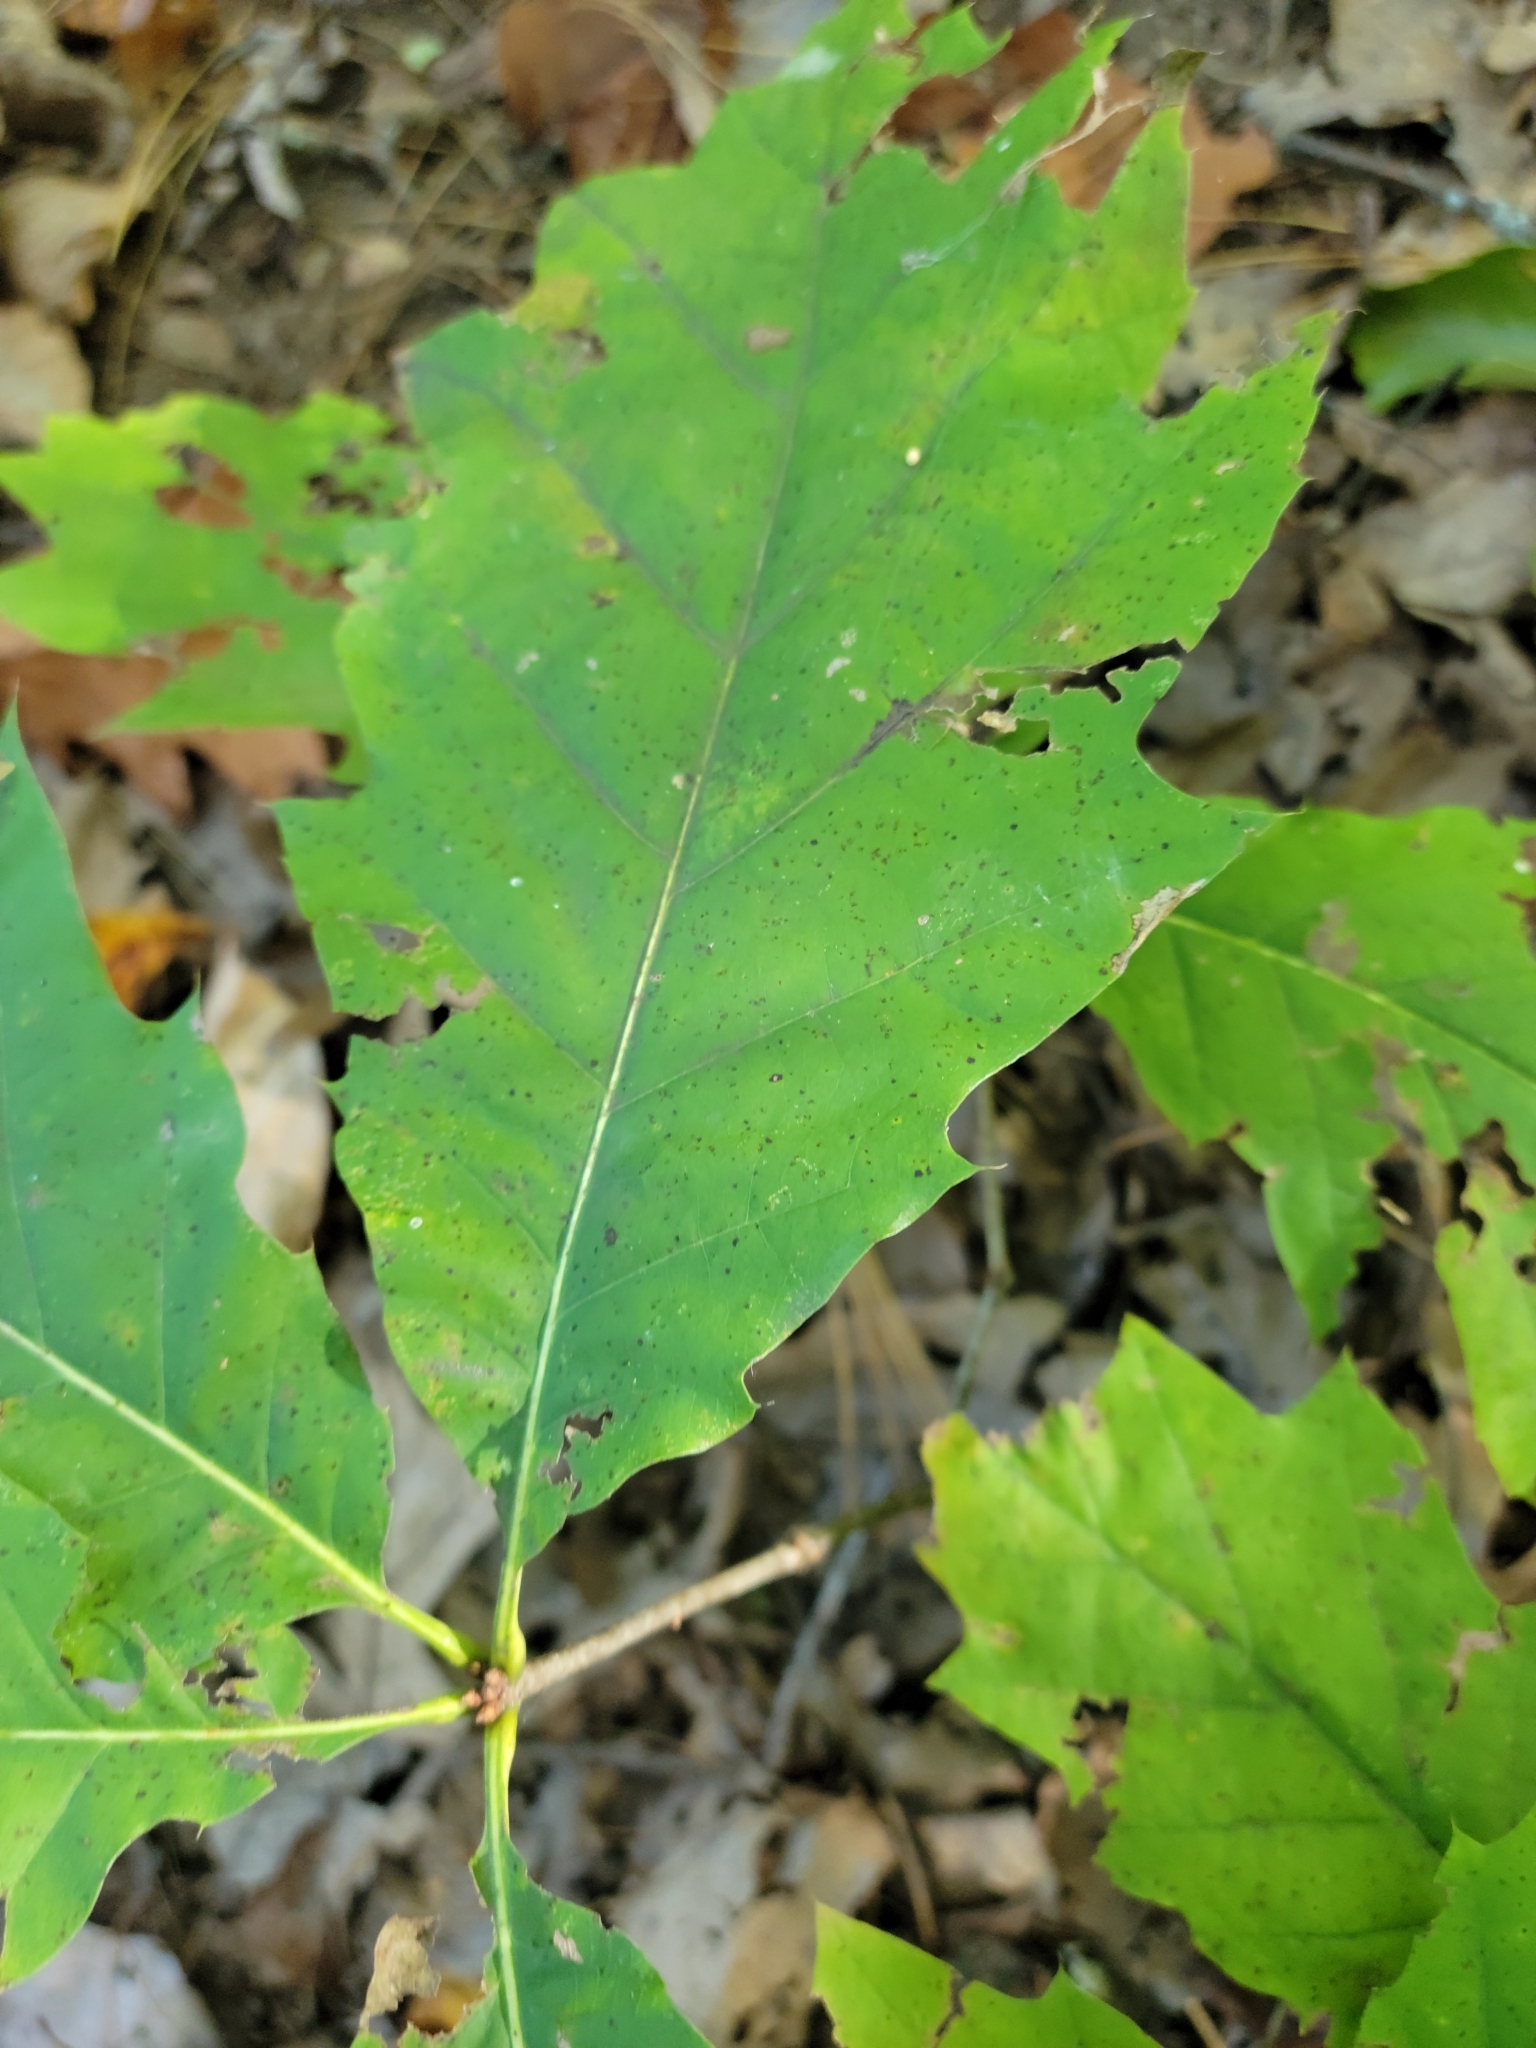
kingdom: Plantae
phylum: Tracheophyta
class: Magnoliopsida
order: Fagales
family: Fagaceae
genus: Quercus
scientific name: Quercus rubra
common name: Red oak
